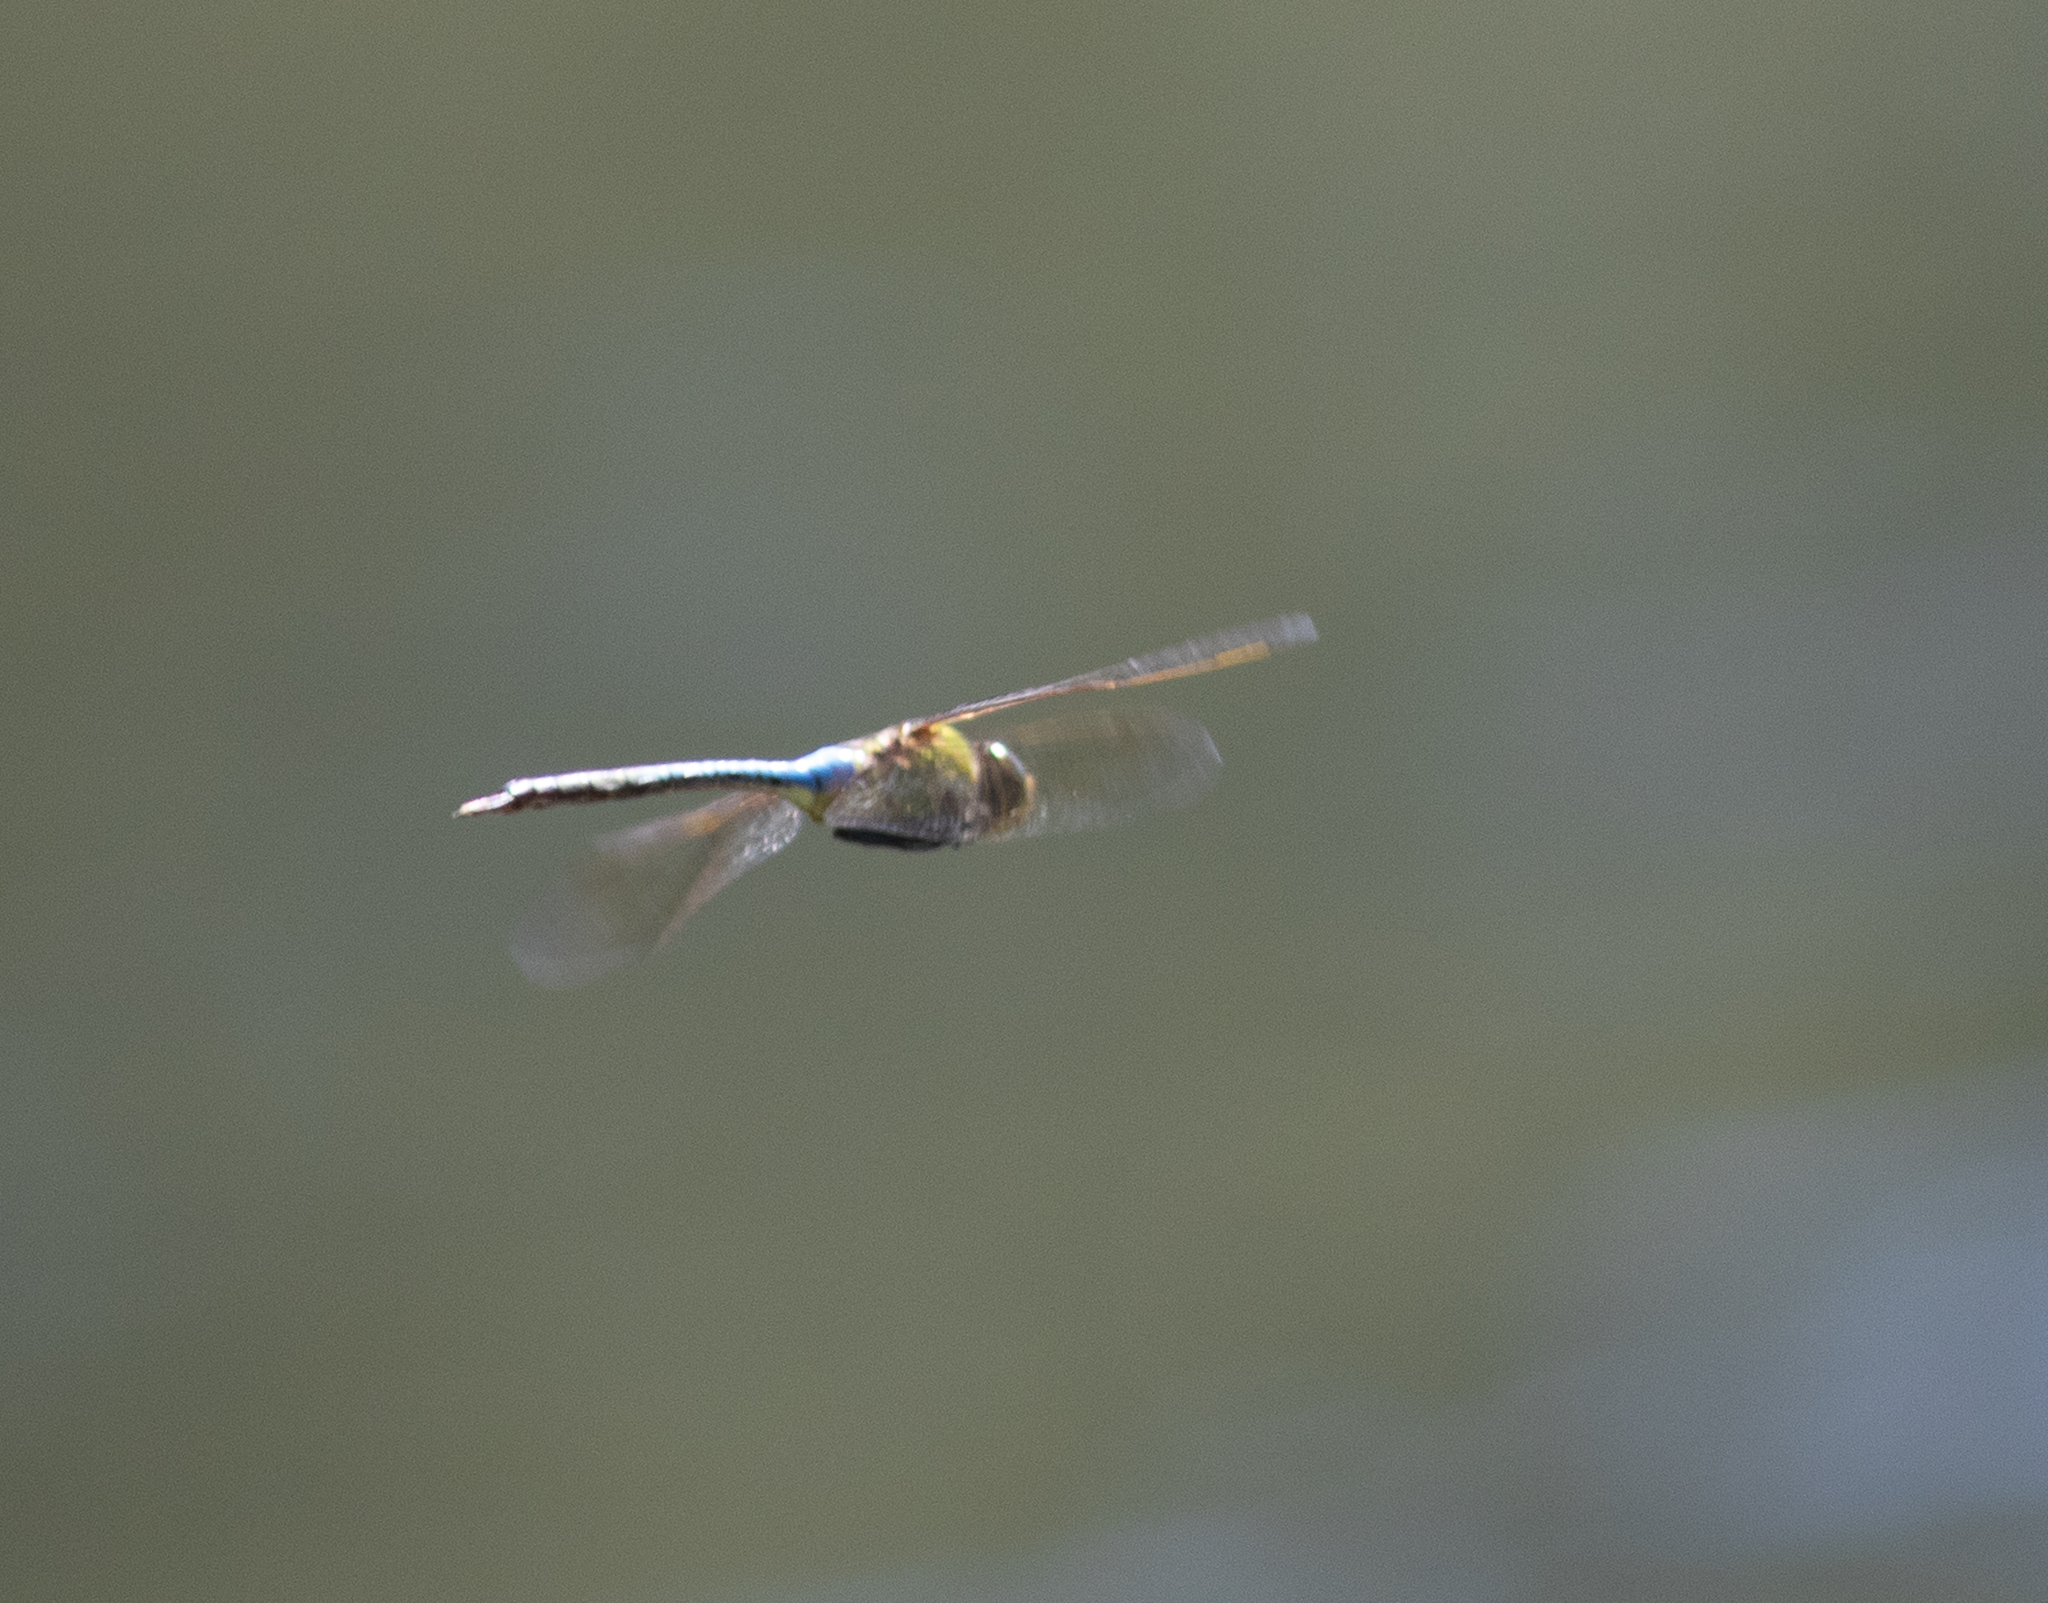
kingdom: Animalia
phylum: Arthropoda
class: Insecta
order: Odonata
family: Aeshnidae
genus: Anax
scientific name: Anax junius
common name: Common green darner
